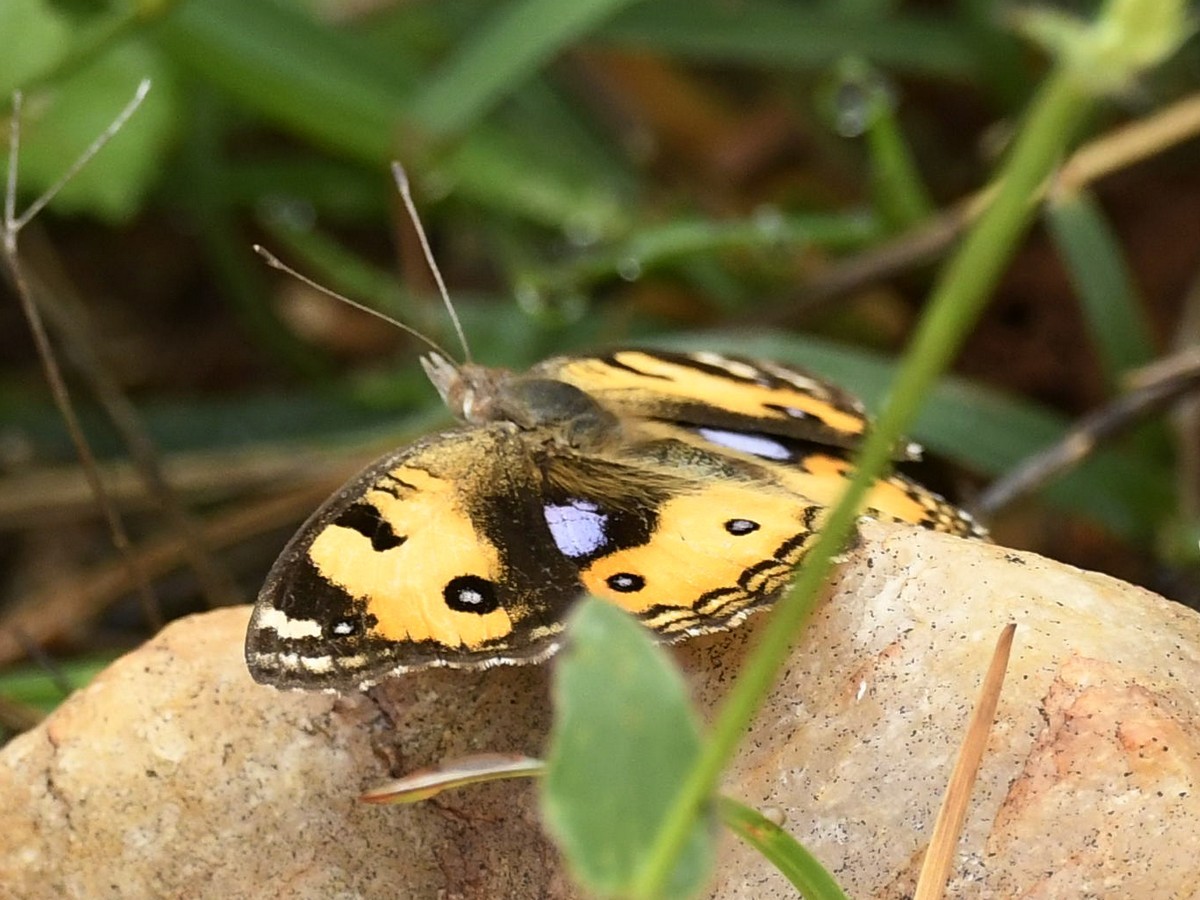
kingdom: Animalia
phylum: Arthropoda
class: Insecta
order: Lepidoptera
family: Nymphalidae
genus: Junonia
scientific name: Junonia hierta
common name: Yellow pansy
